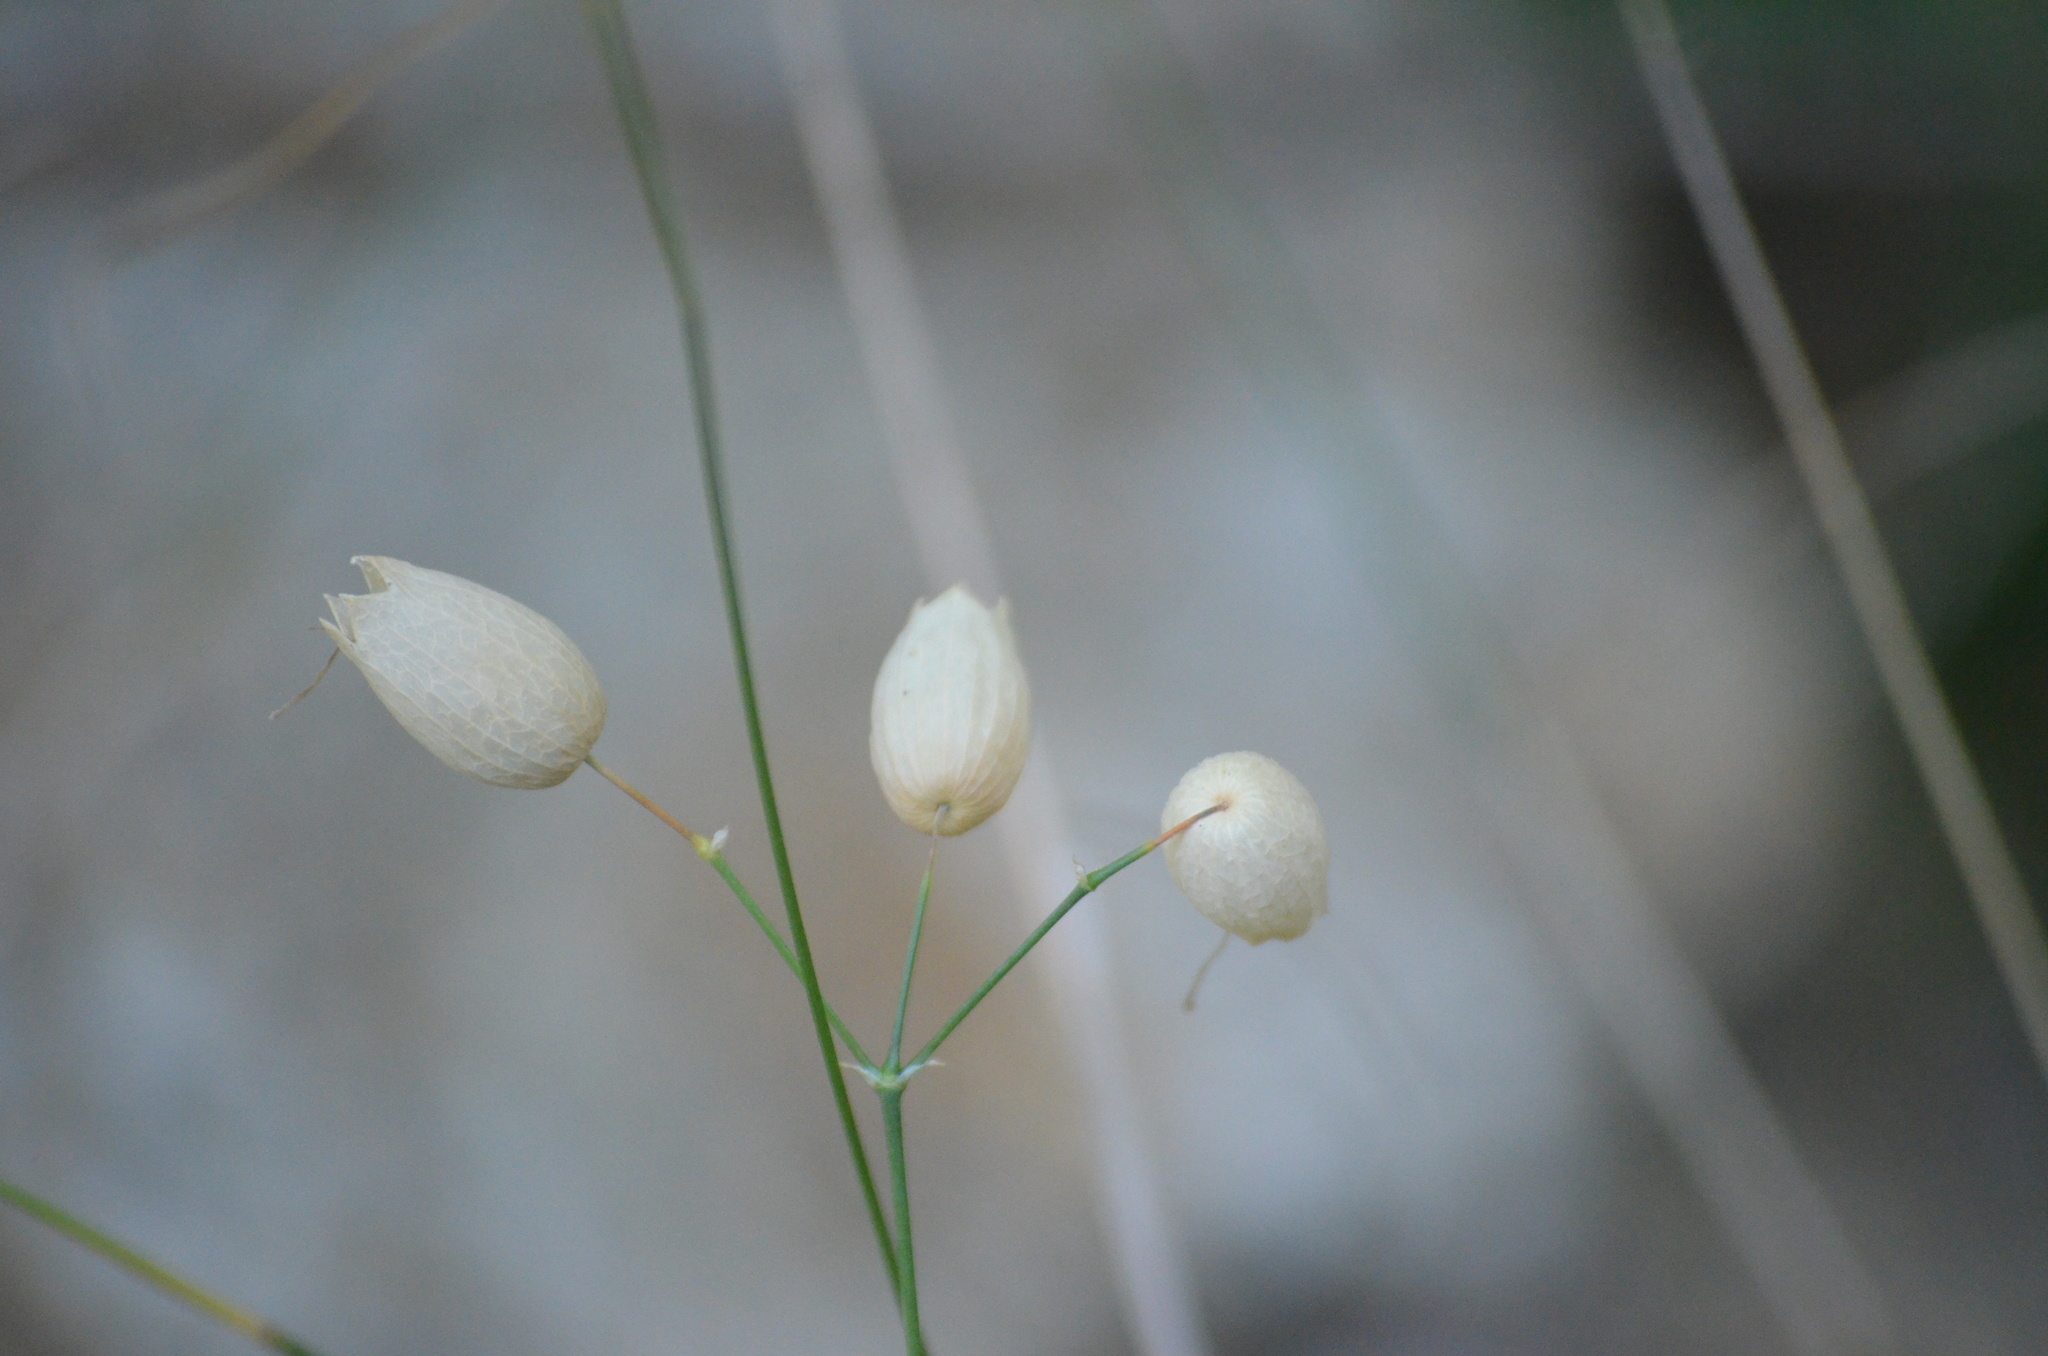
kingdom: Plantae
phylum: Tracheophyta
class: Magnoliopsida
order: Caryophyllales
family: Caryophyllaceae
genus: Silene
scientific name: Silene vulgaris
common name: Bladder campion
